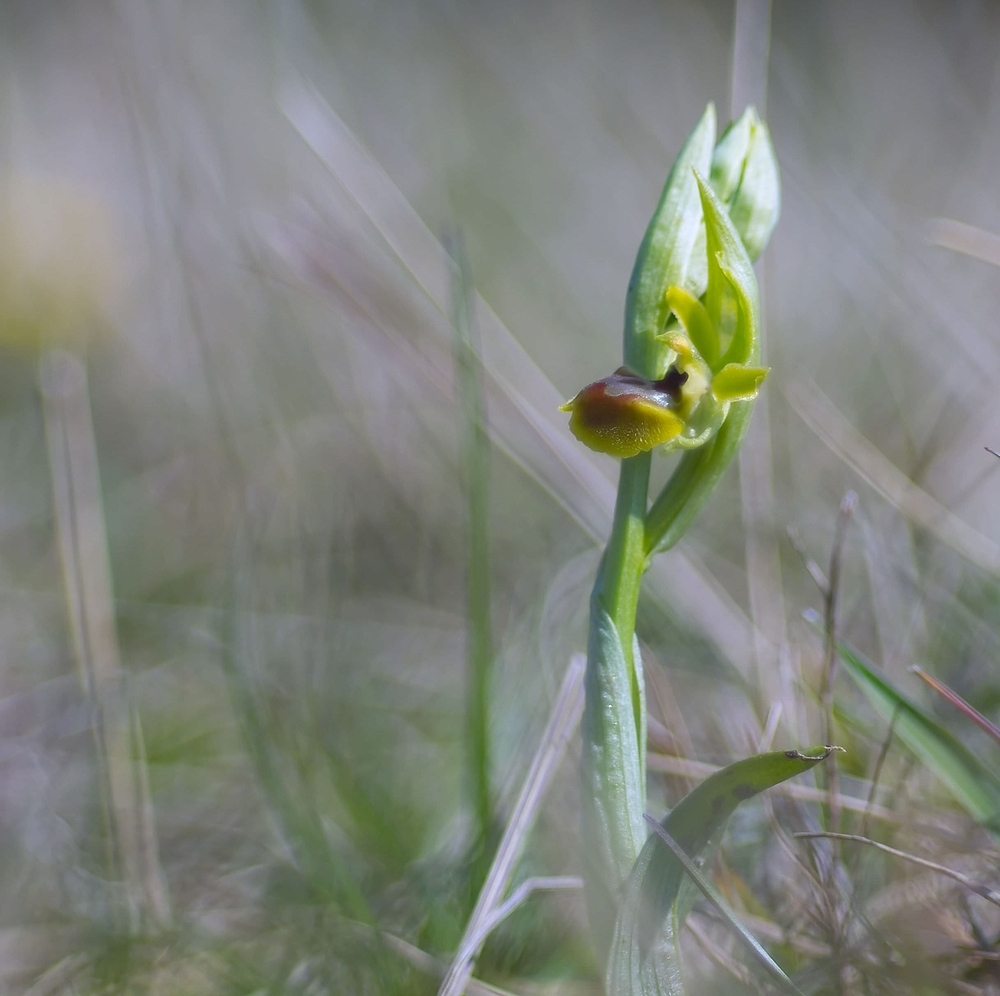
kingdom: Plantae
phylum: Tracheophyta
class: Liliopsida
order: Asparagales
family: Orchidaceae
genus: Ophrys
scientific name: Ophrys araneola
